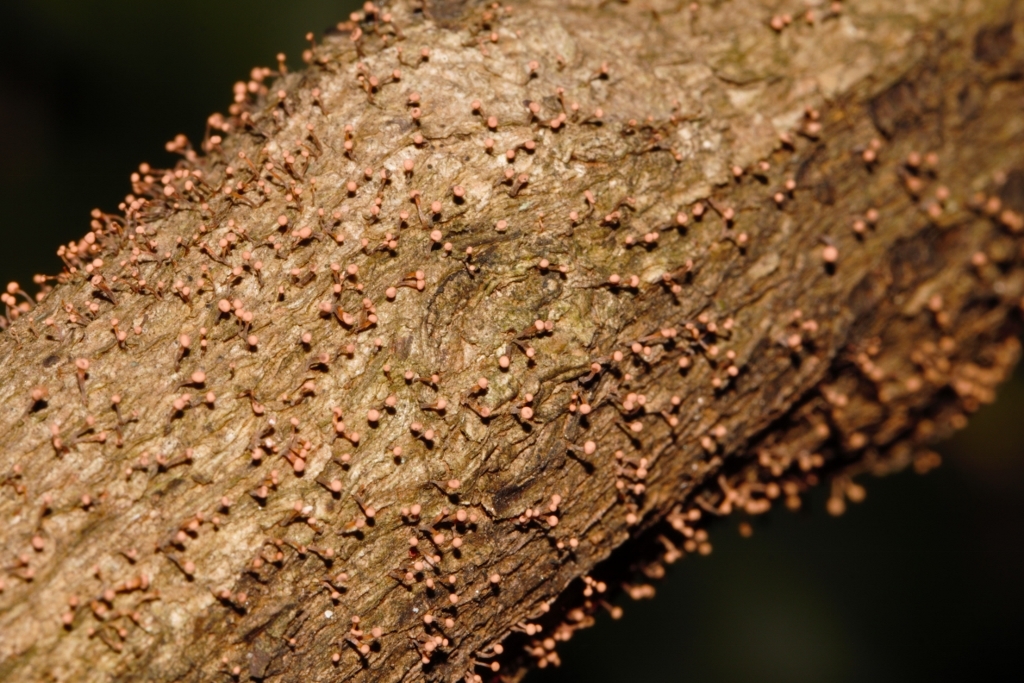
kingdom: Fungi
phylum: Ascomycota
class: Sordariomycetes
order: Hypocreales
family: Nectriaceae
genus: Nectria
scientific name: Nectria pseudotrichia
